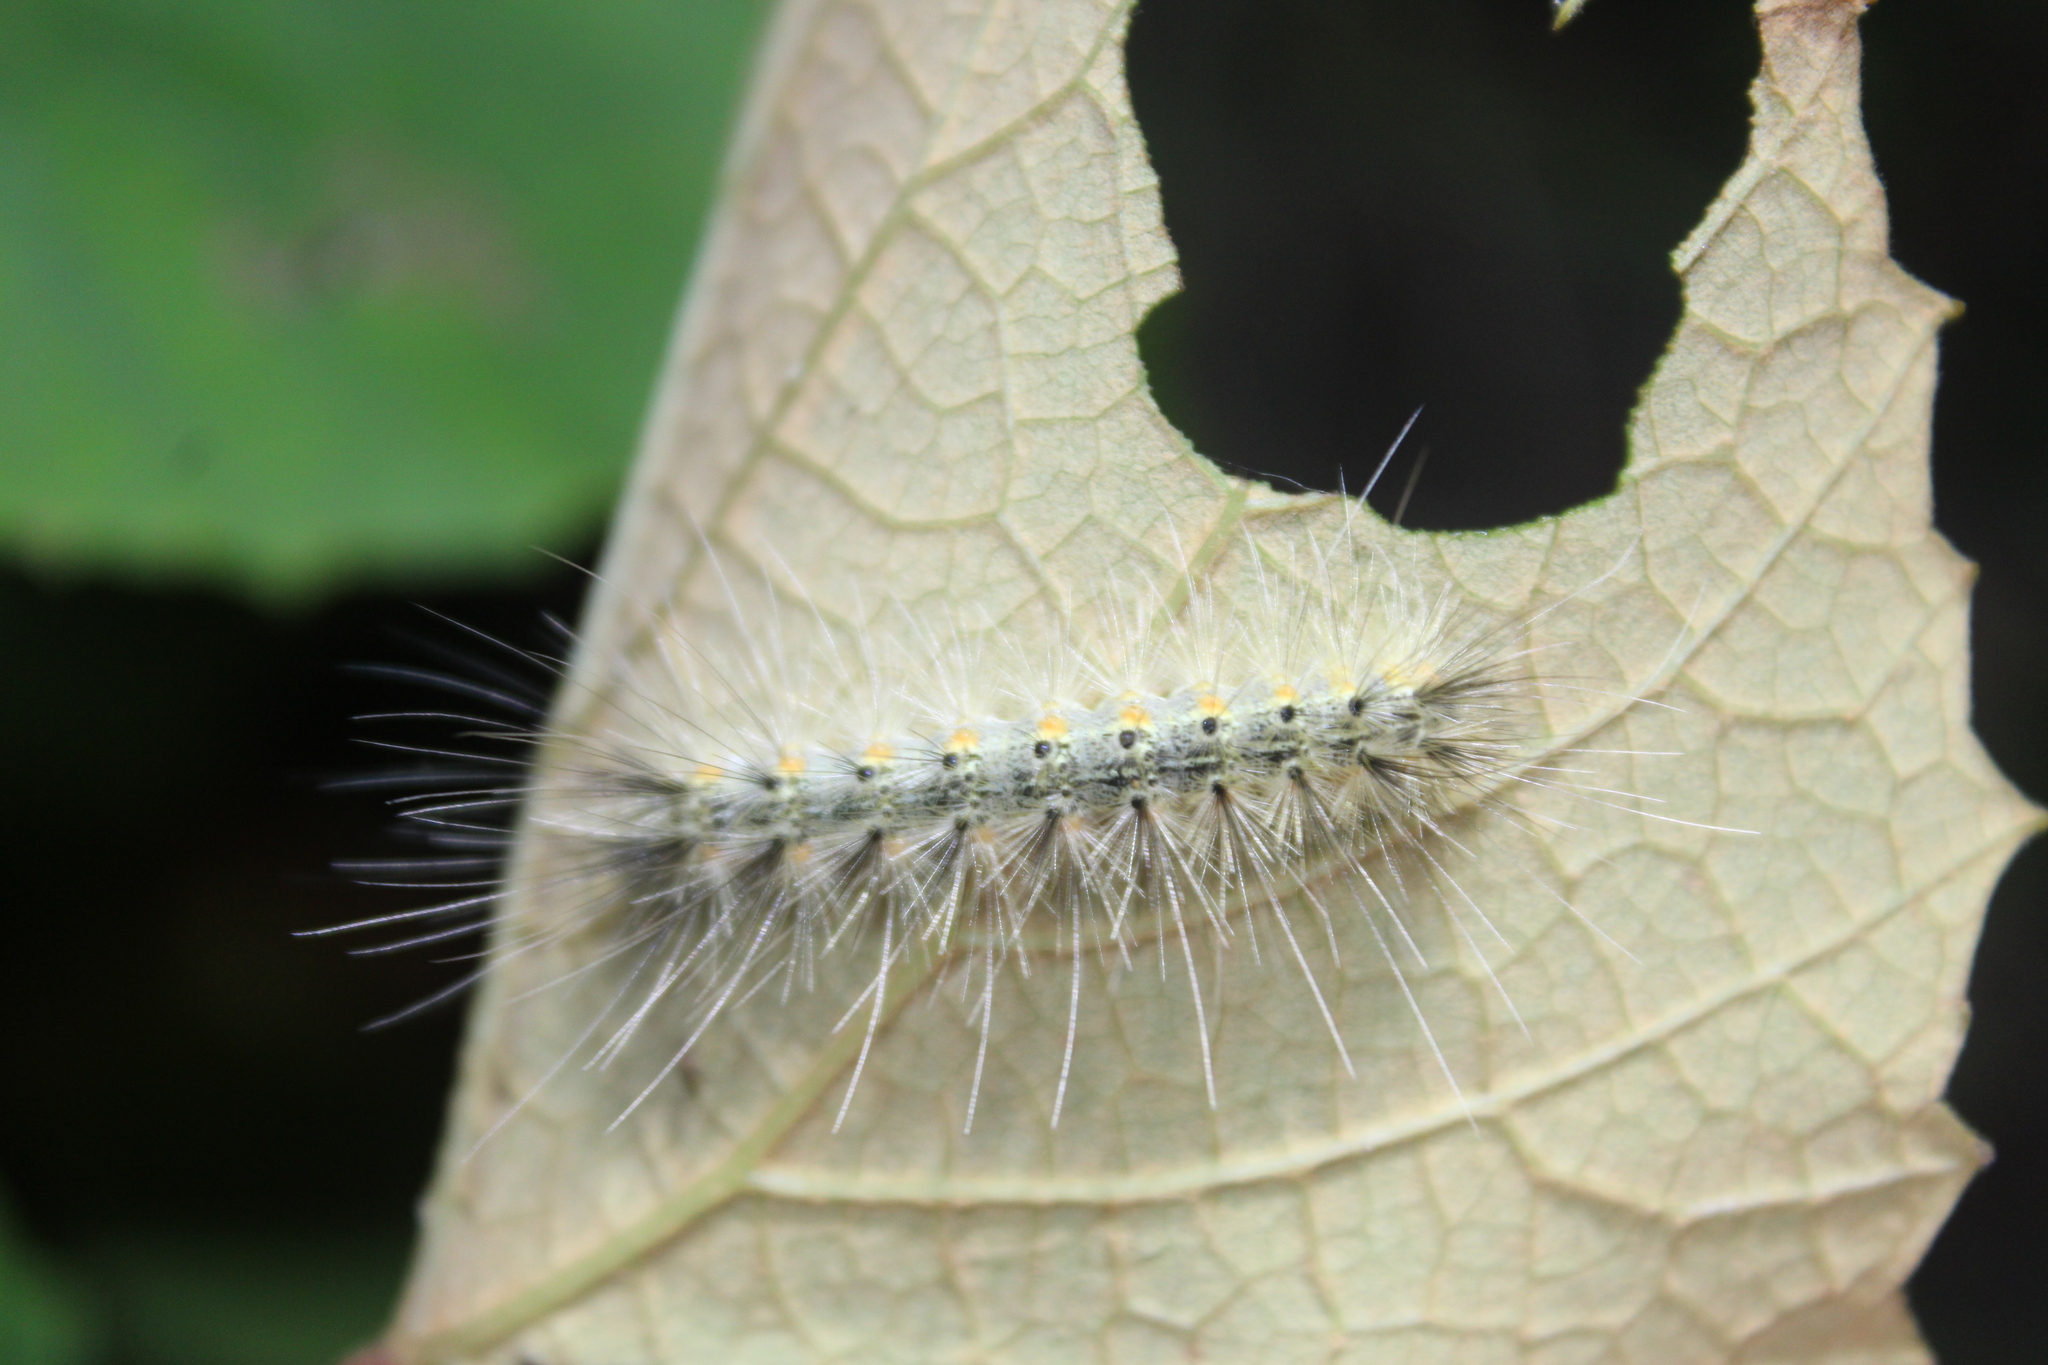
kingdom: Animalia
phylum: Arthropoda
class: Insecta
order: Lepidoptera
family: Erebidae
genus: Hyphantria
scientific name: Hyphantria cunea
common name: American white moth
